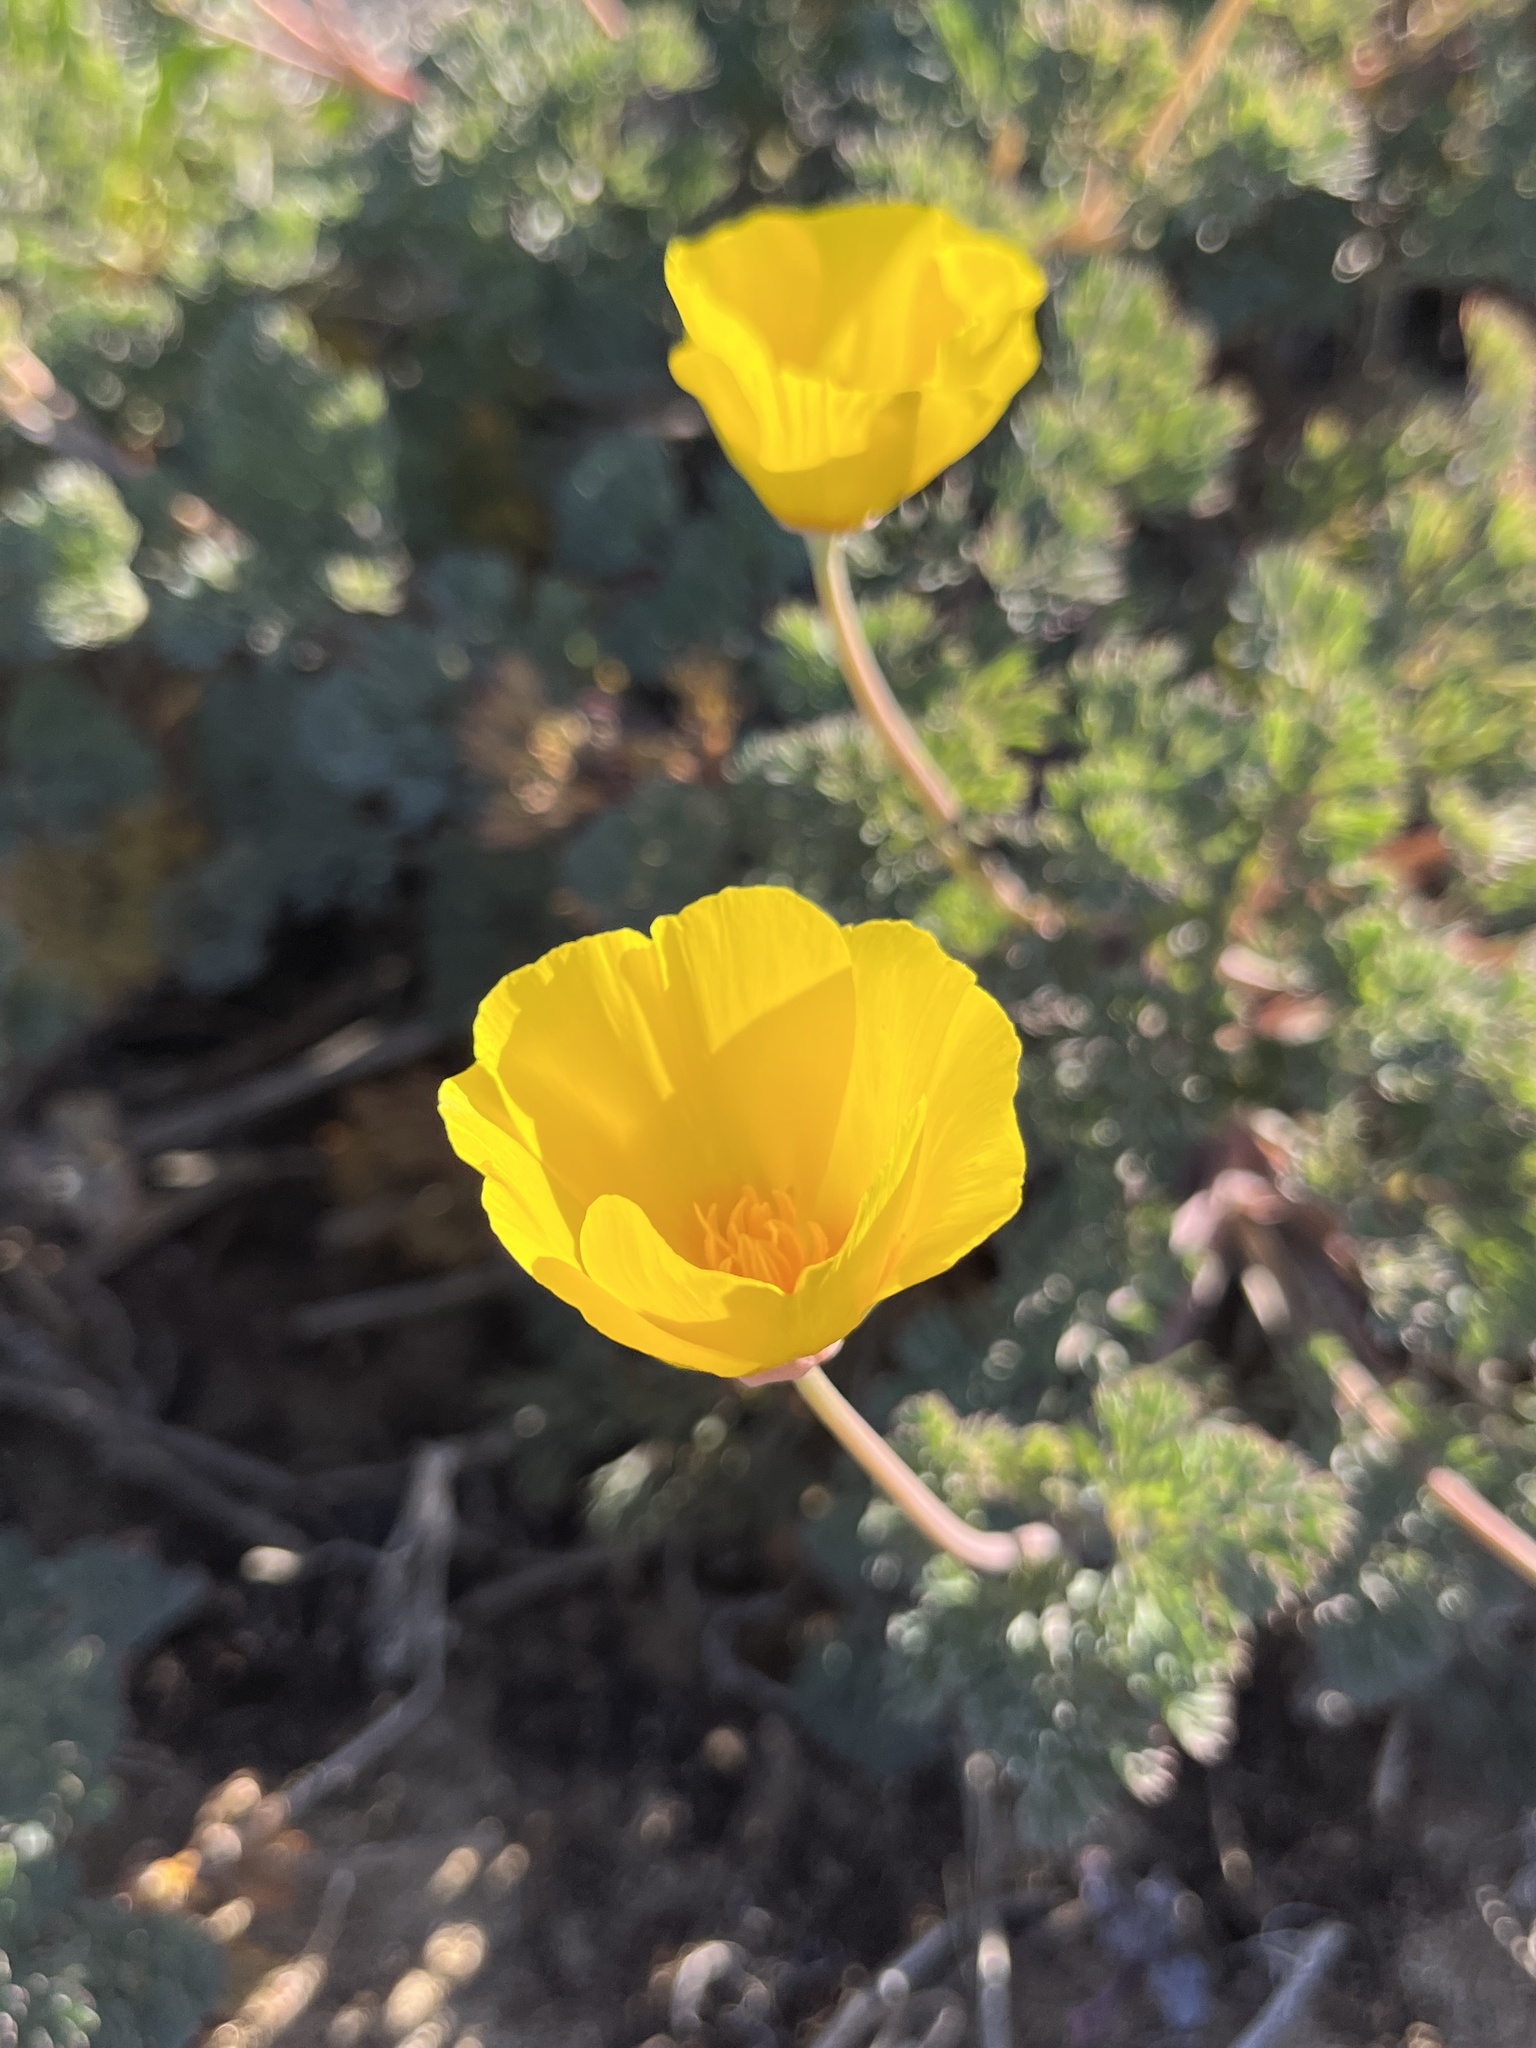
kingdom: Plantae
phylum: Tracheophyta
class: Magnoliopsida
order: Ranunculales
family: Papaveraceae
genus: Eschscholzia
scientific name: Eschscholzia californica
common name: California poppy
